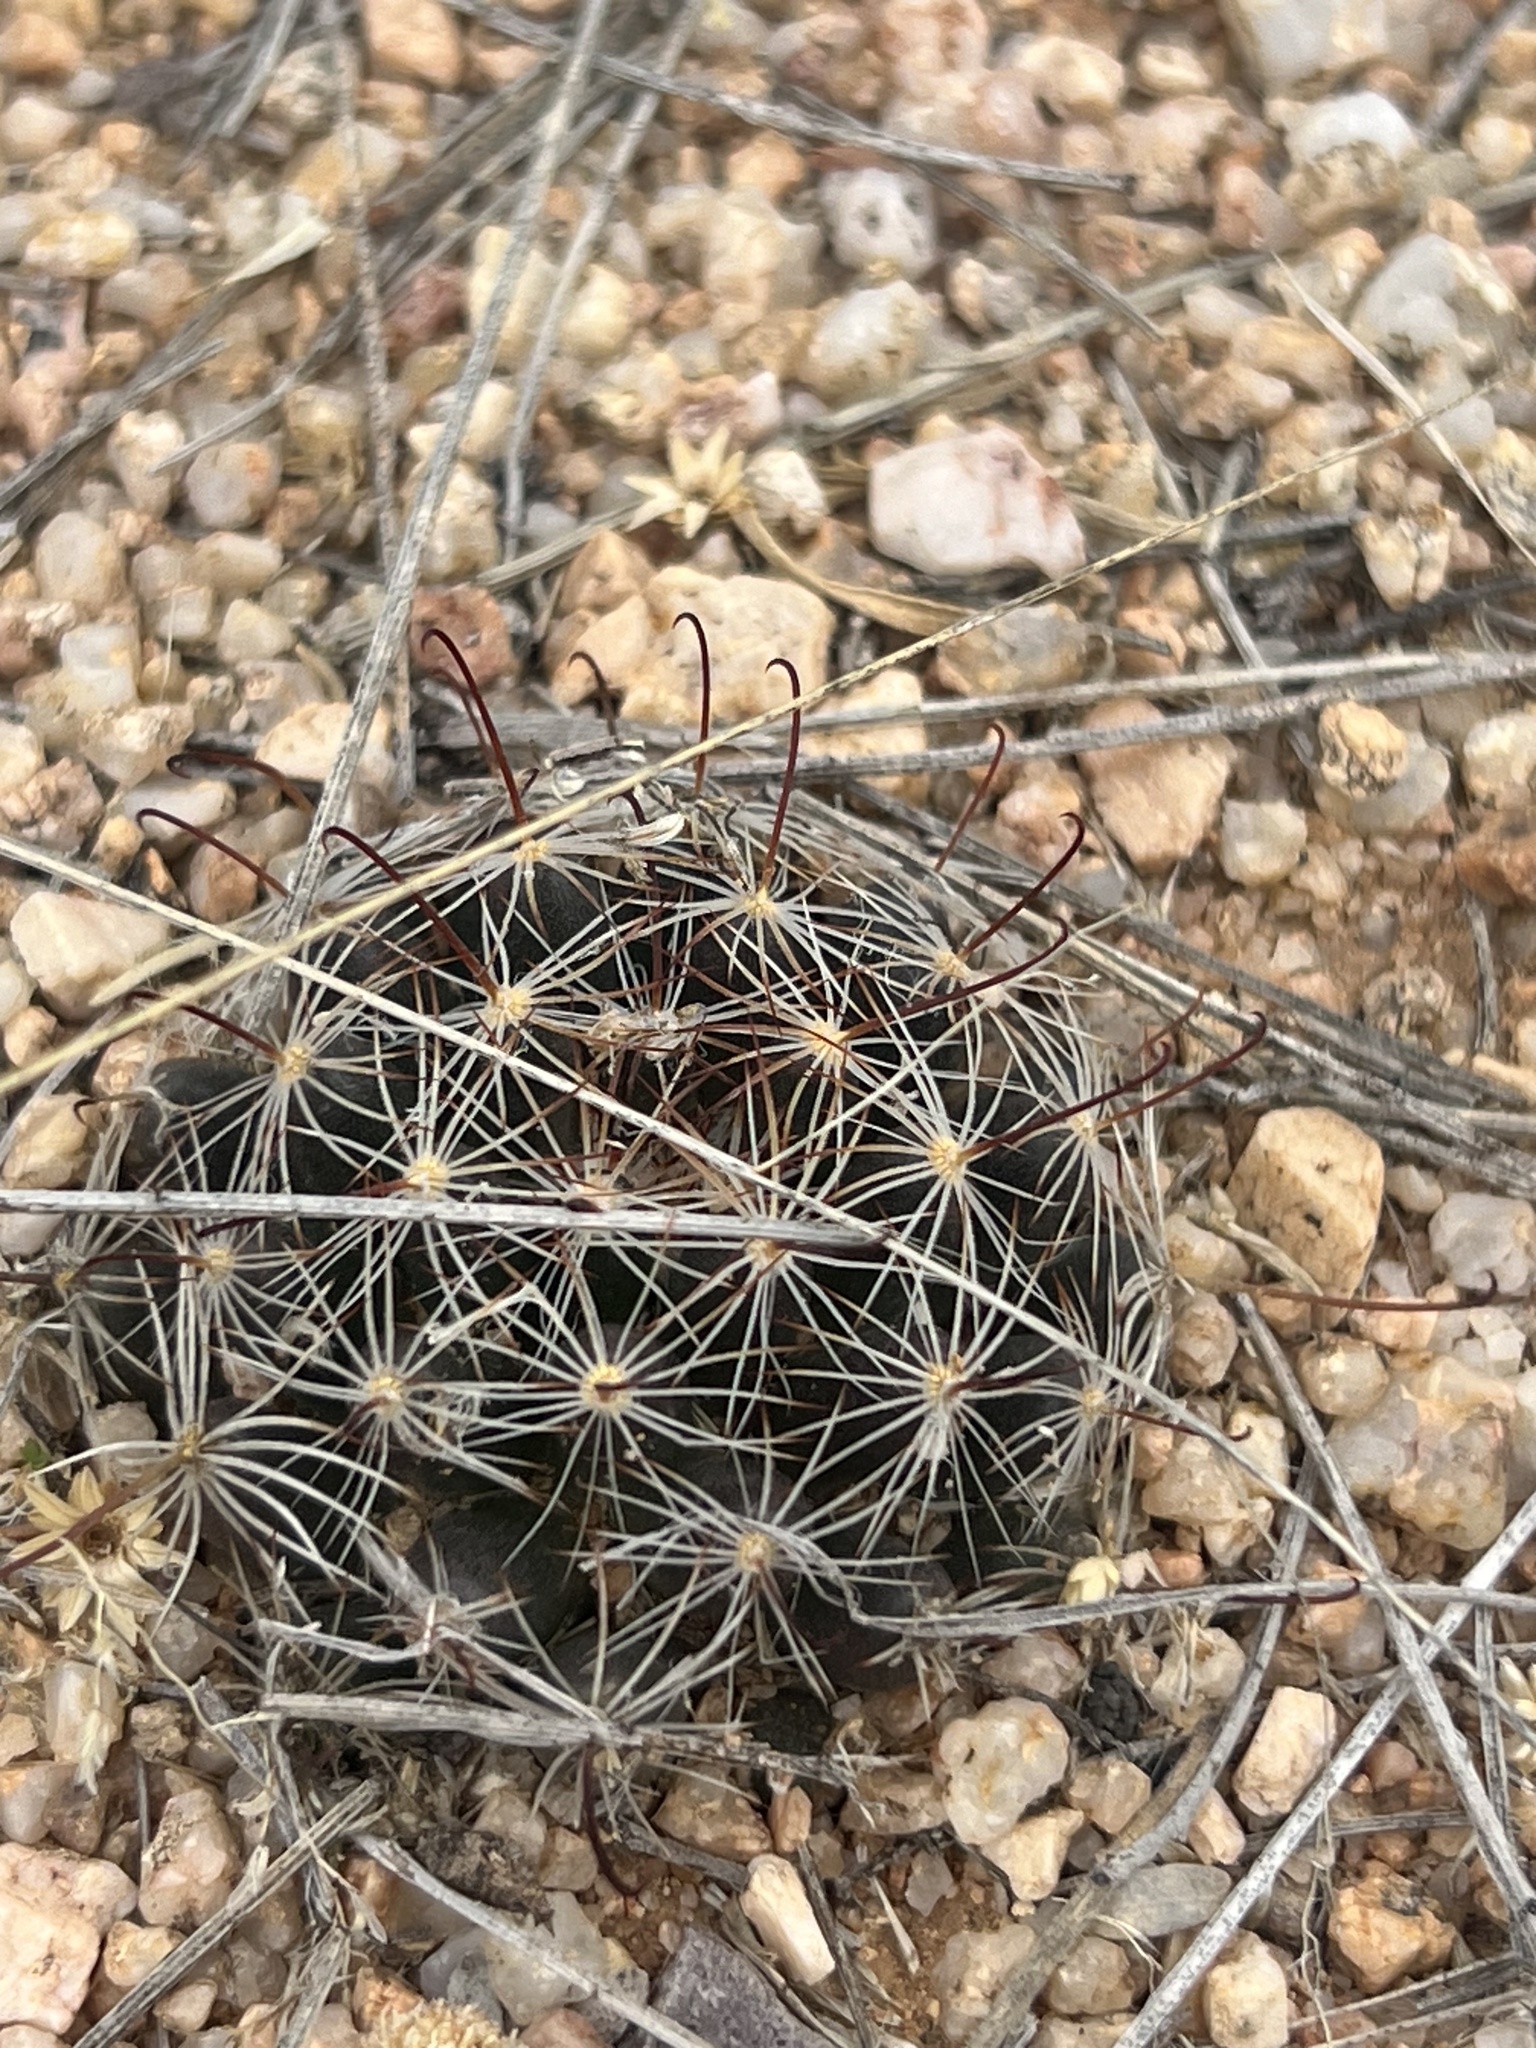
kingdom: Plantae
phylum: Tracheophyta
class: Magnoliopsida
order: Caryophyllales
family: Cactaceae
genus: Cochemiea
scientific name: Cochemiea wrightii
